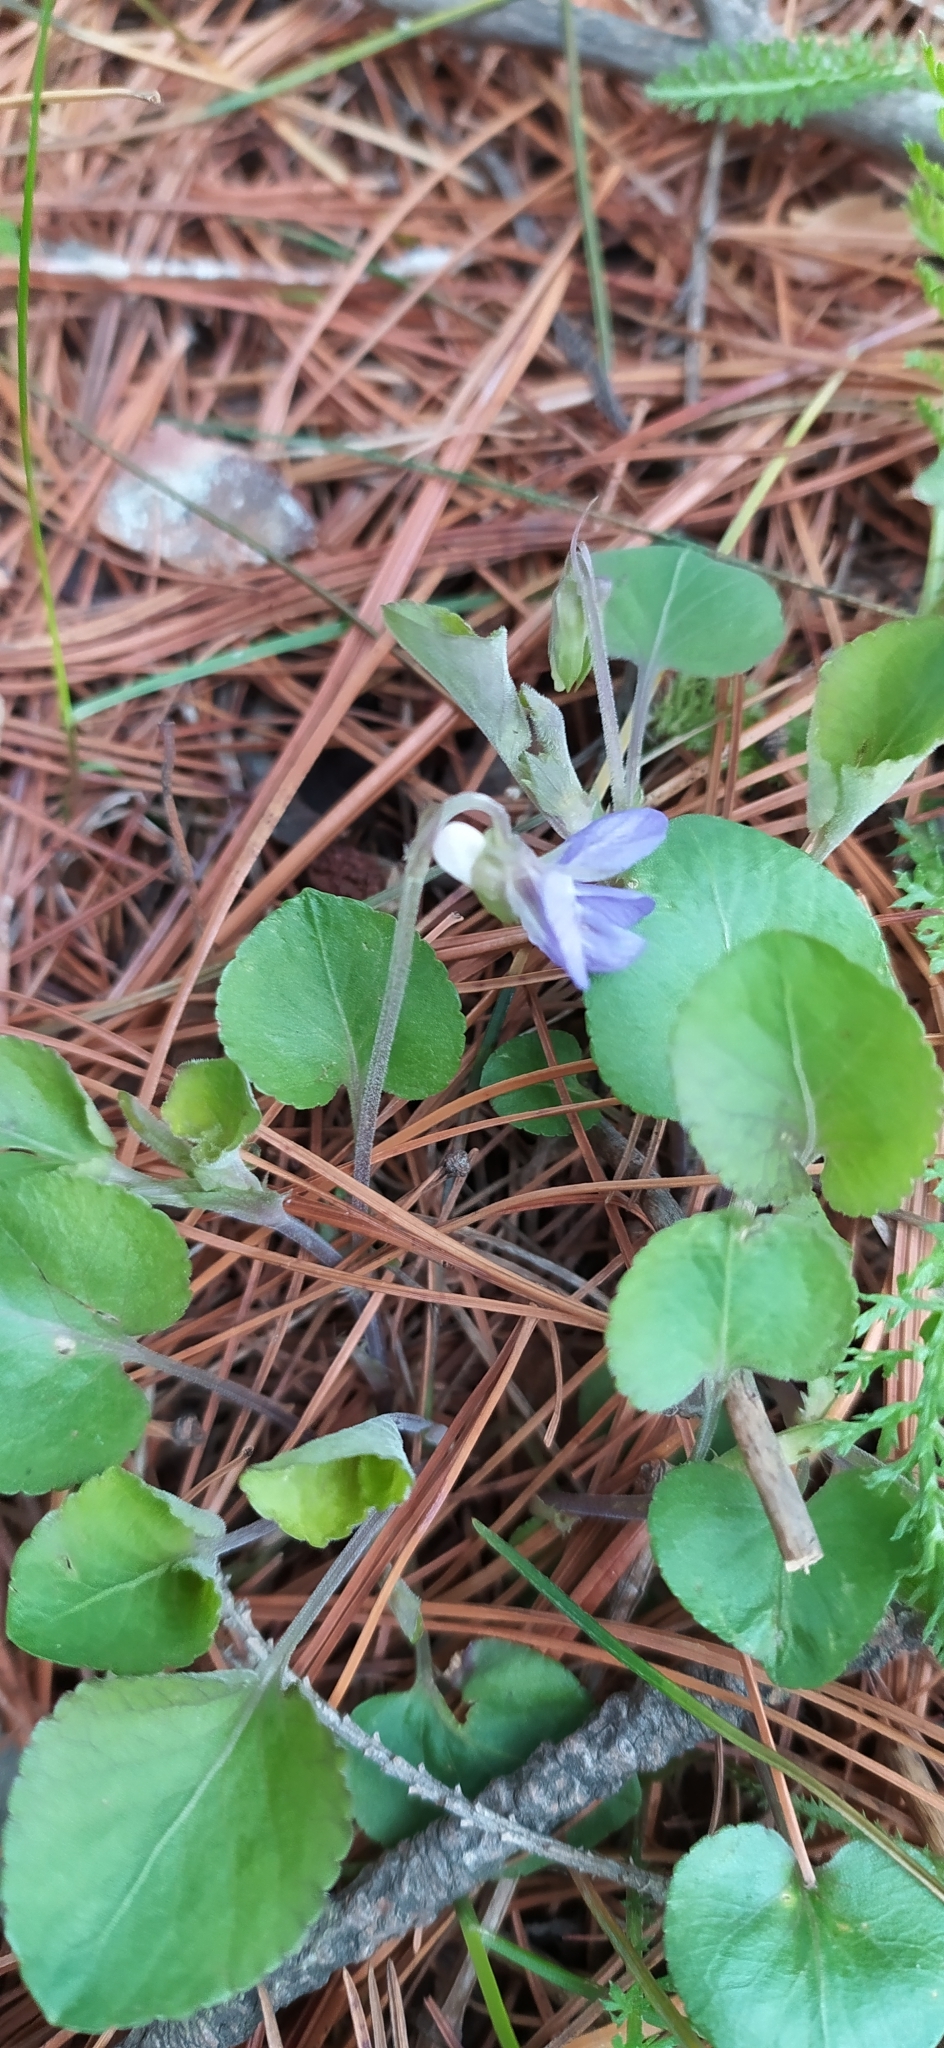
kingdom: Plantae
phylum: Tracheophyta
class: Magnoliopsida
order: Malpighiales
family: Violaceae
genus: Viola
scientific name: Viola rupestris
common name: Teesdale violet
